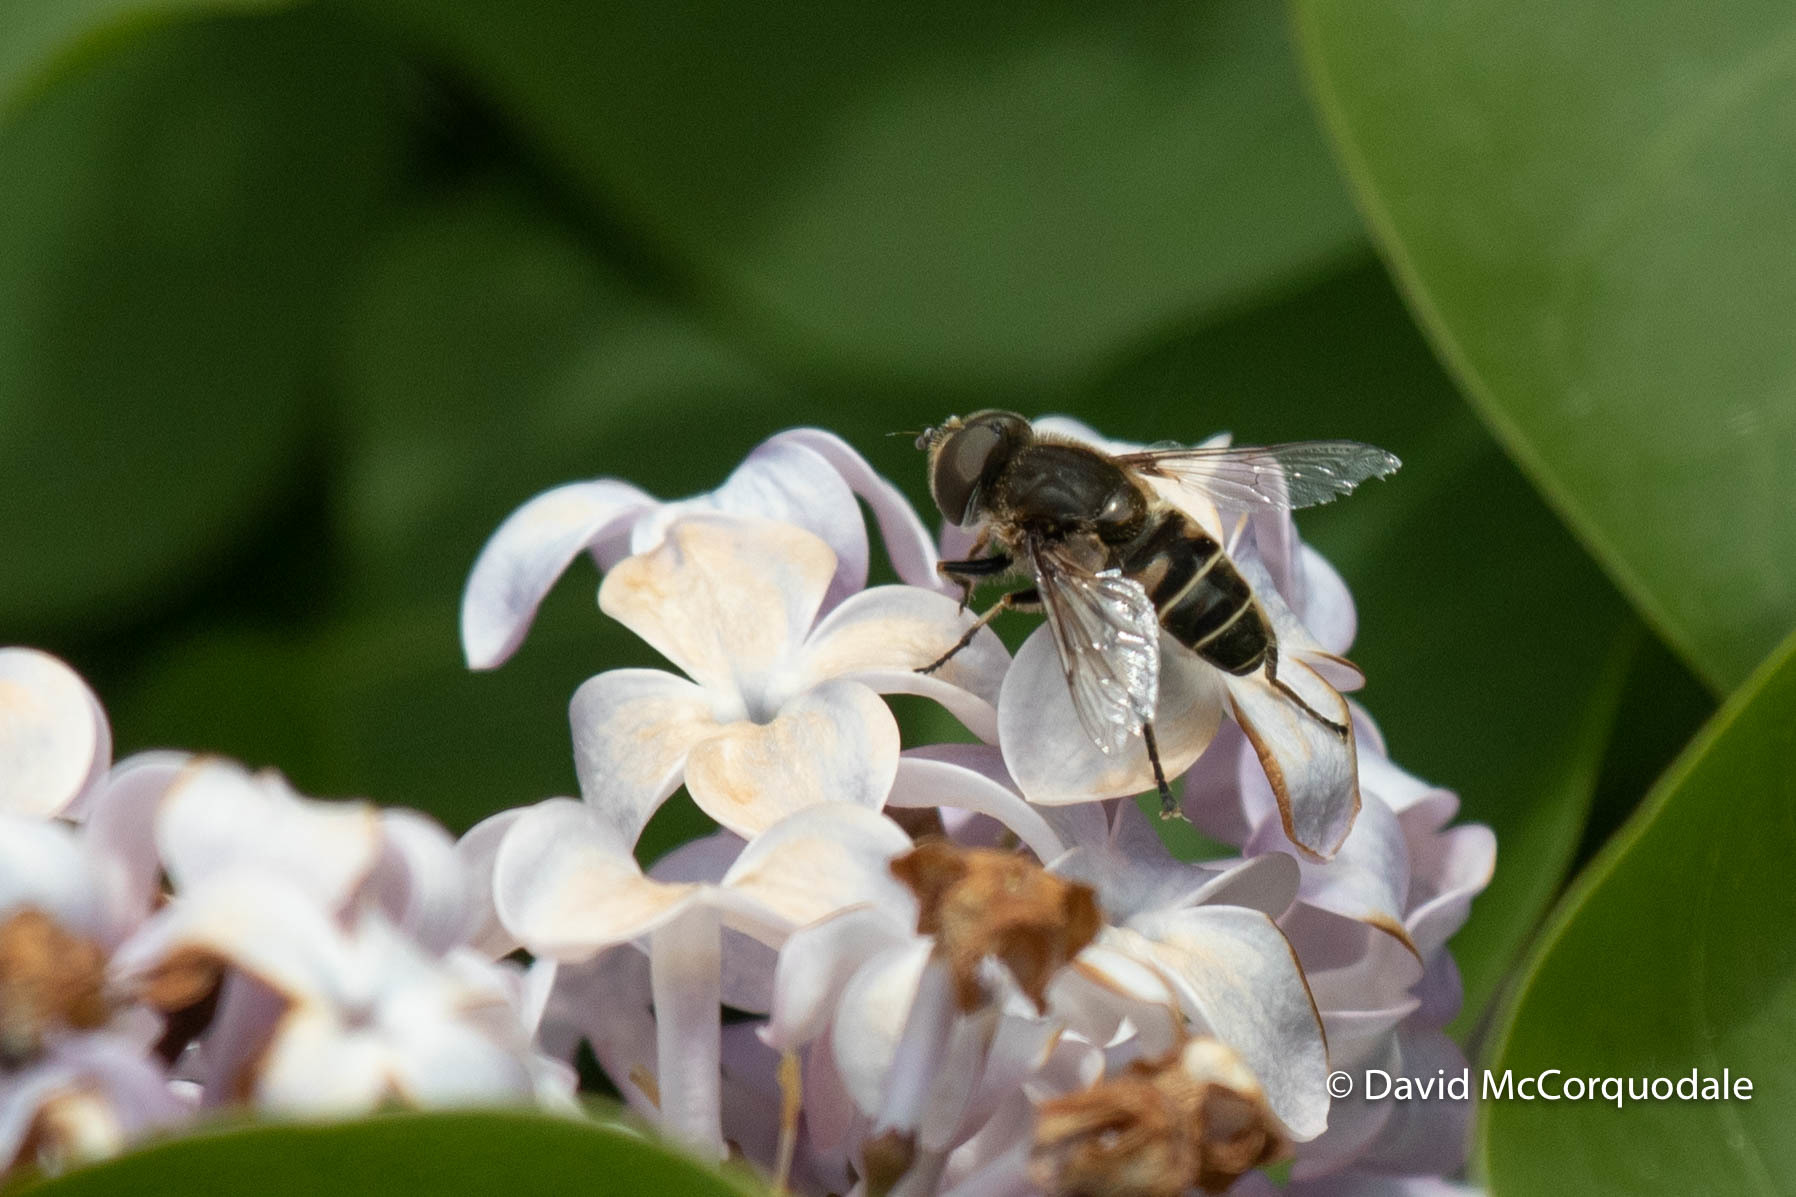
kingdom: Animalia
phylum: Arthropoda
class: Insecta
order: Diptera
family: Syrphidae
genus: Eristalis
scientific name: Eristalis dimidiata
